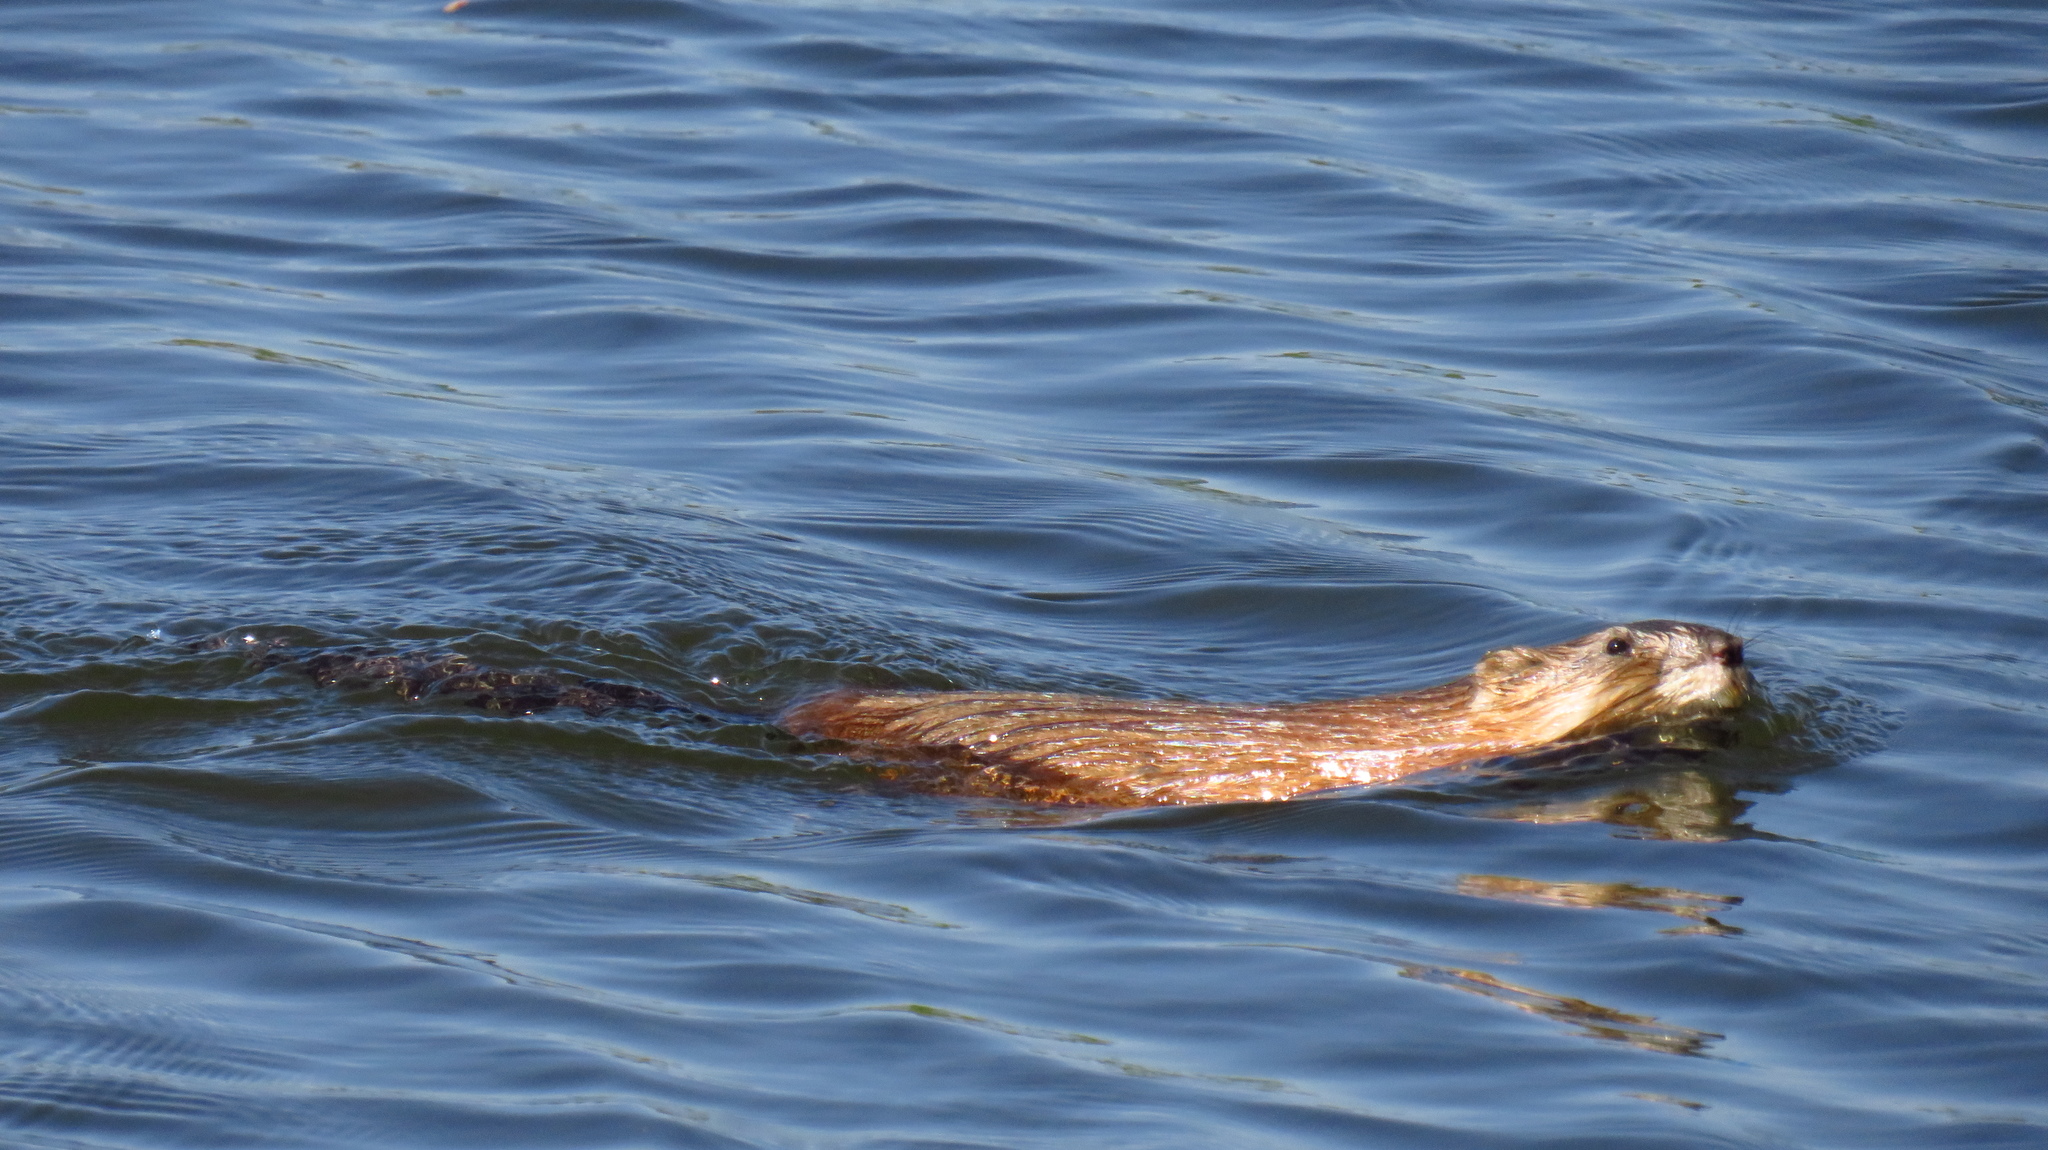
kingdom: Animalia
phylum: Chordata
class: Mammalia
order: Rodentia
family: Cricetidae
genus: Ondatra
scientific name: Ondatra zibethicus
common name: Muskrat
